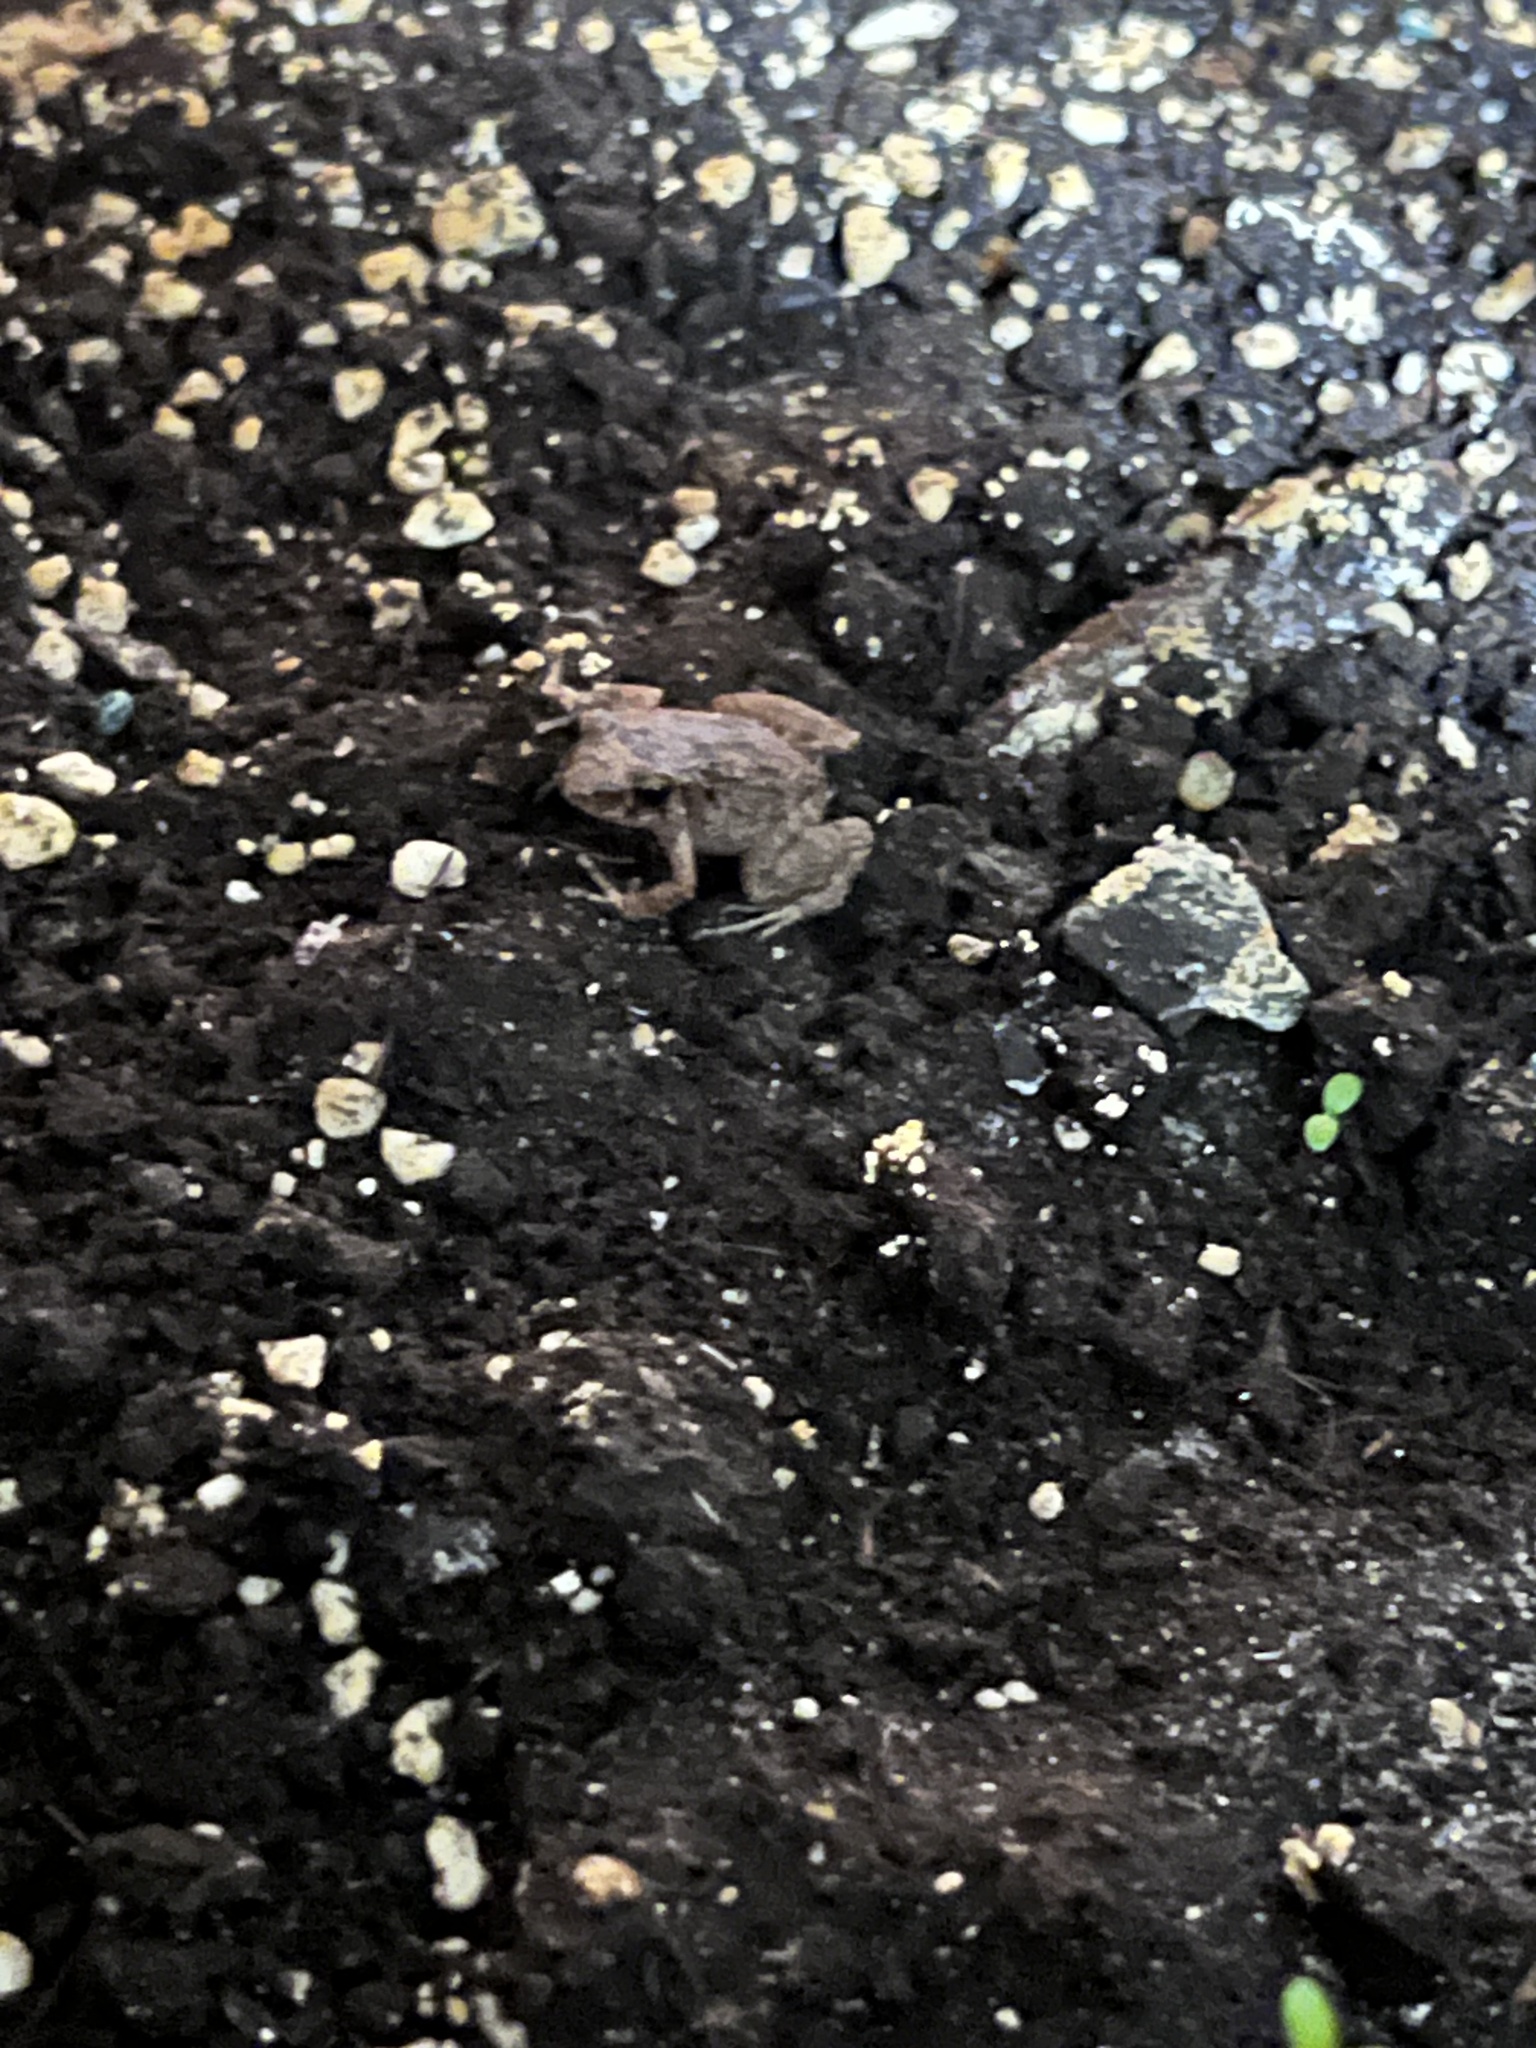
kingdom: Animalia
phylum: Chordata
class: Amphibia
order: Anura
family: Eleutherodactylidae
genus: Eleutherodactylus
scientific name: Eleutherodactylus planirostris
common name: Greenhouse frog
